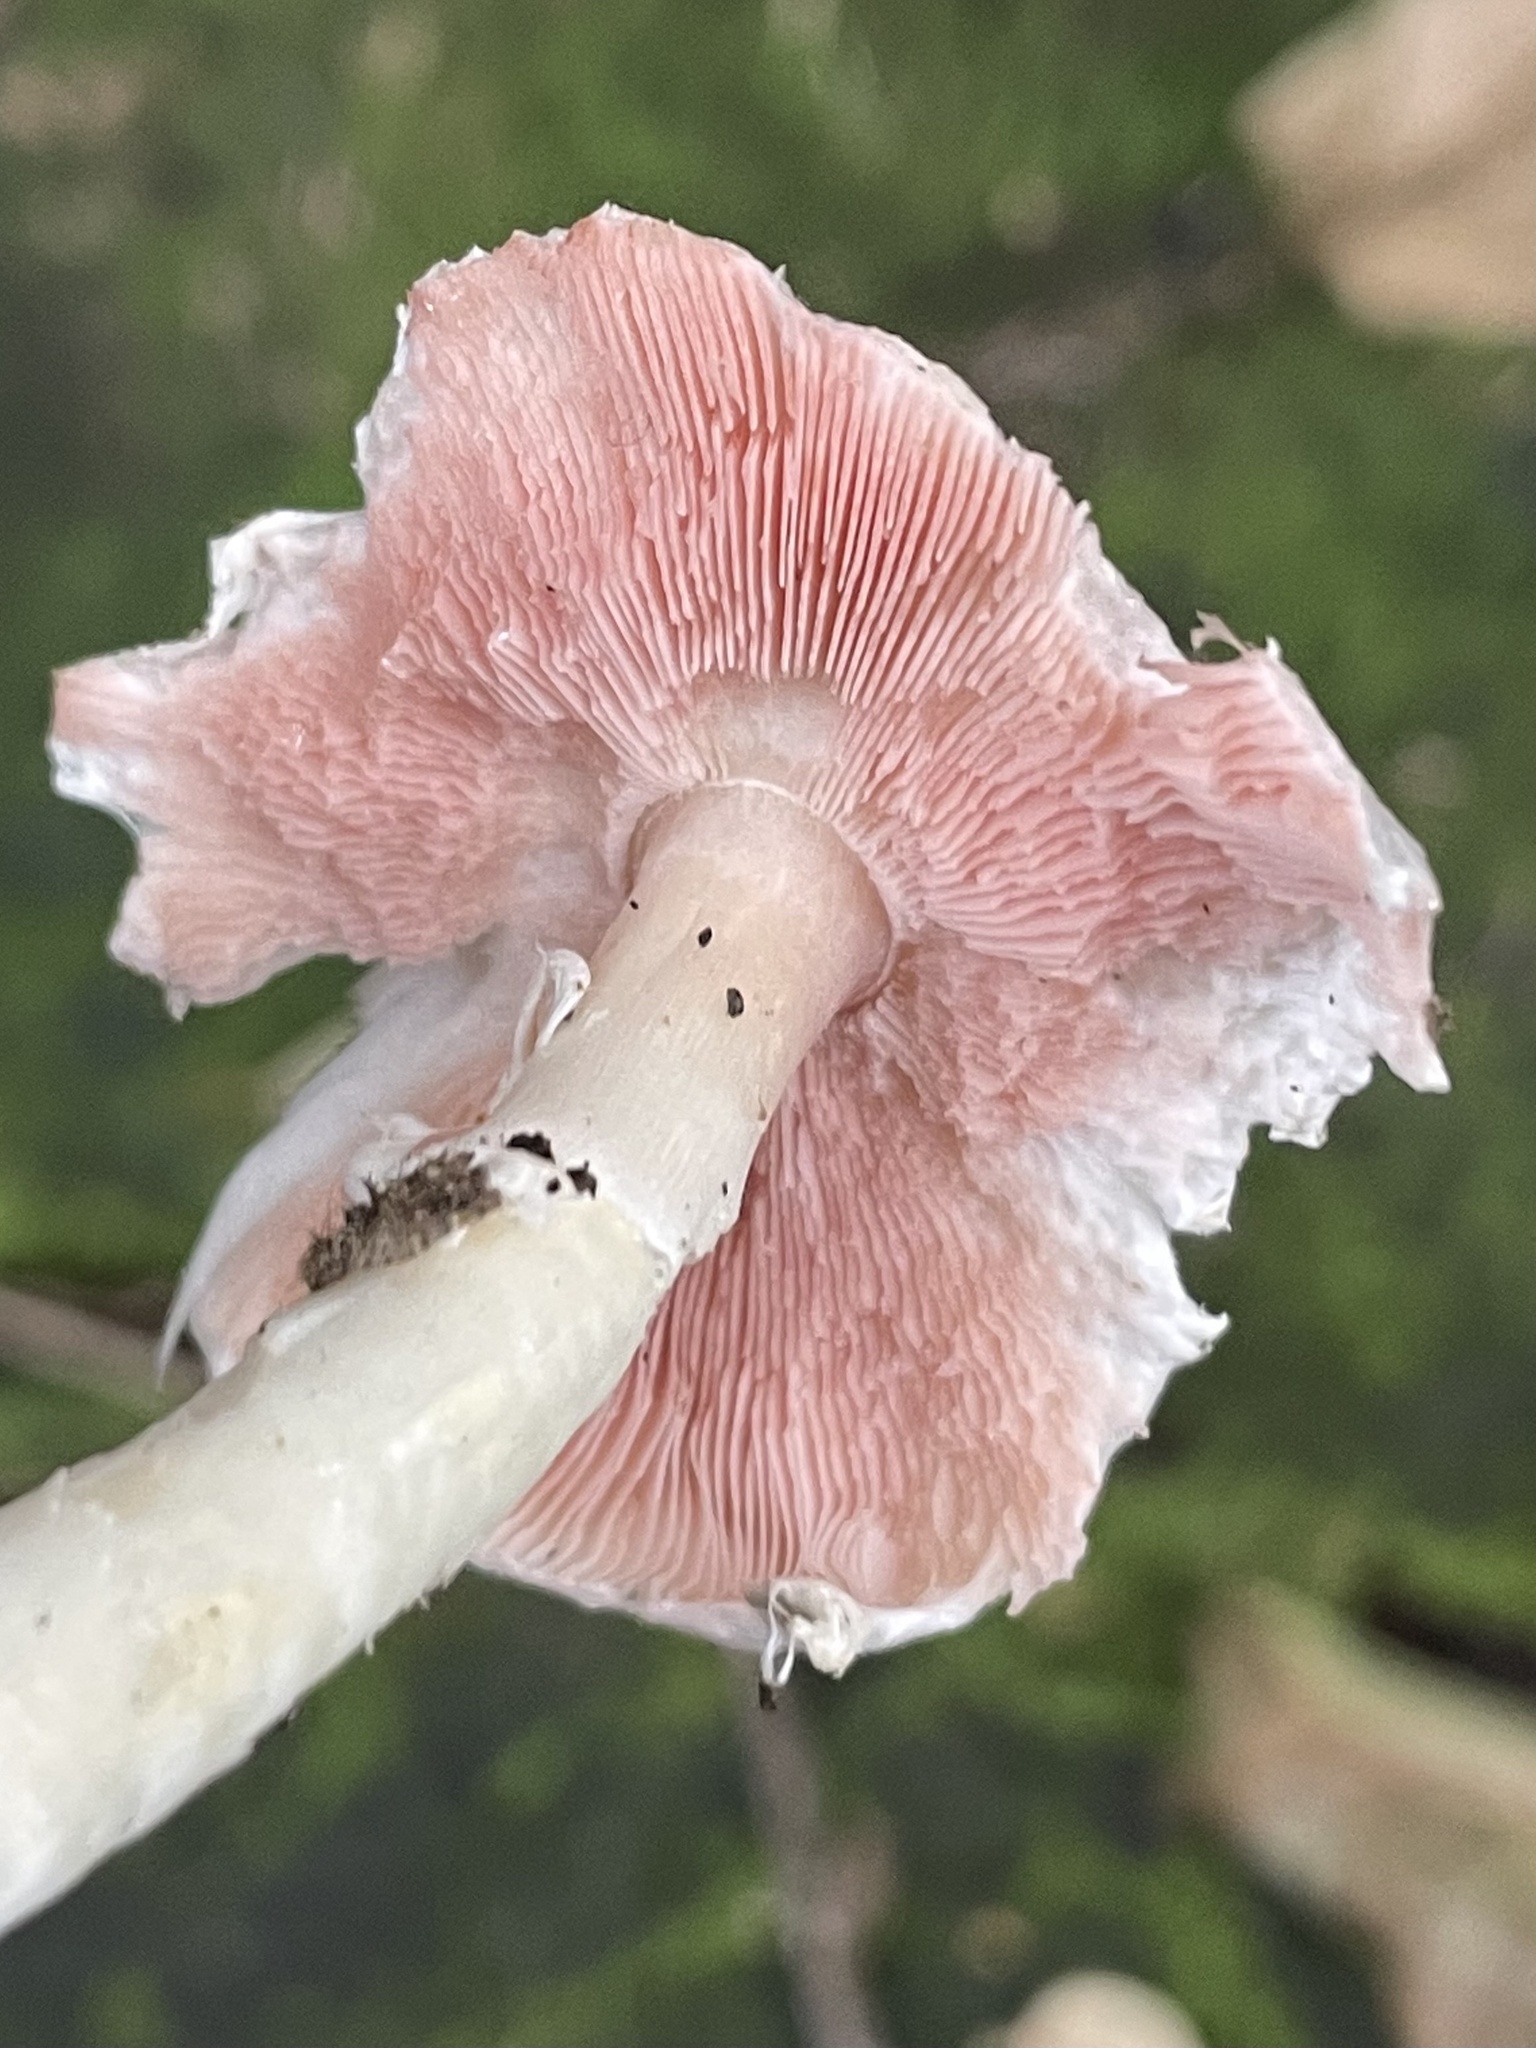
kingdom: Fungi
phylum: Basidiomycota
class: Agaricomycetes
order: Agaricales
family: Agaricaceae
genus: Leucoagaricus
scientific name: Leucoagaricus leucothites
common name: White dapperling
